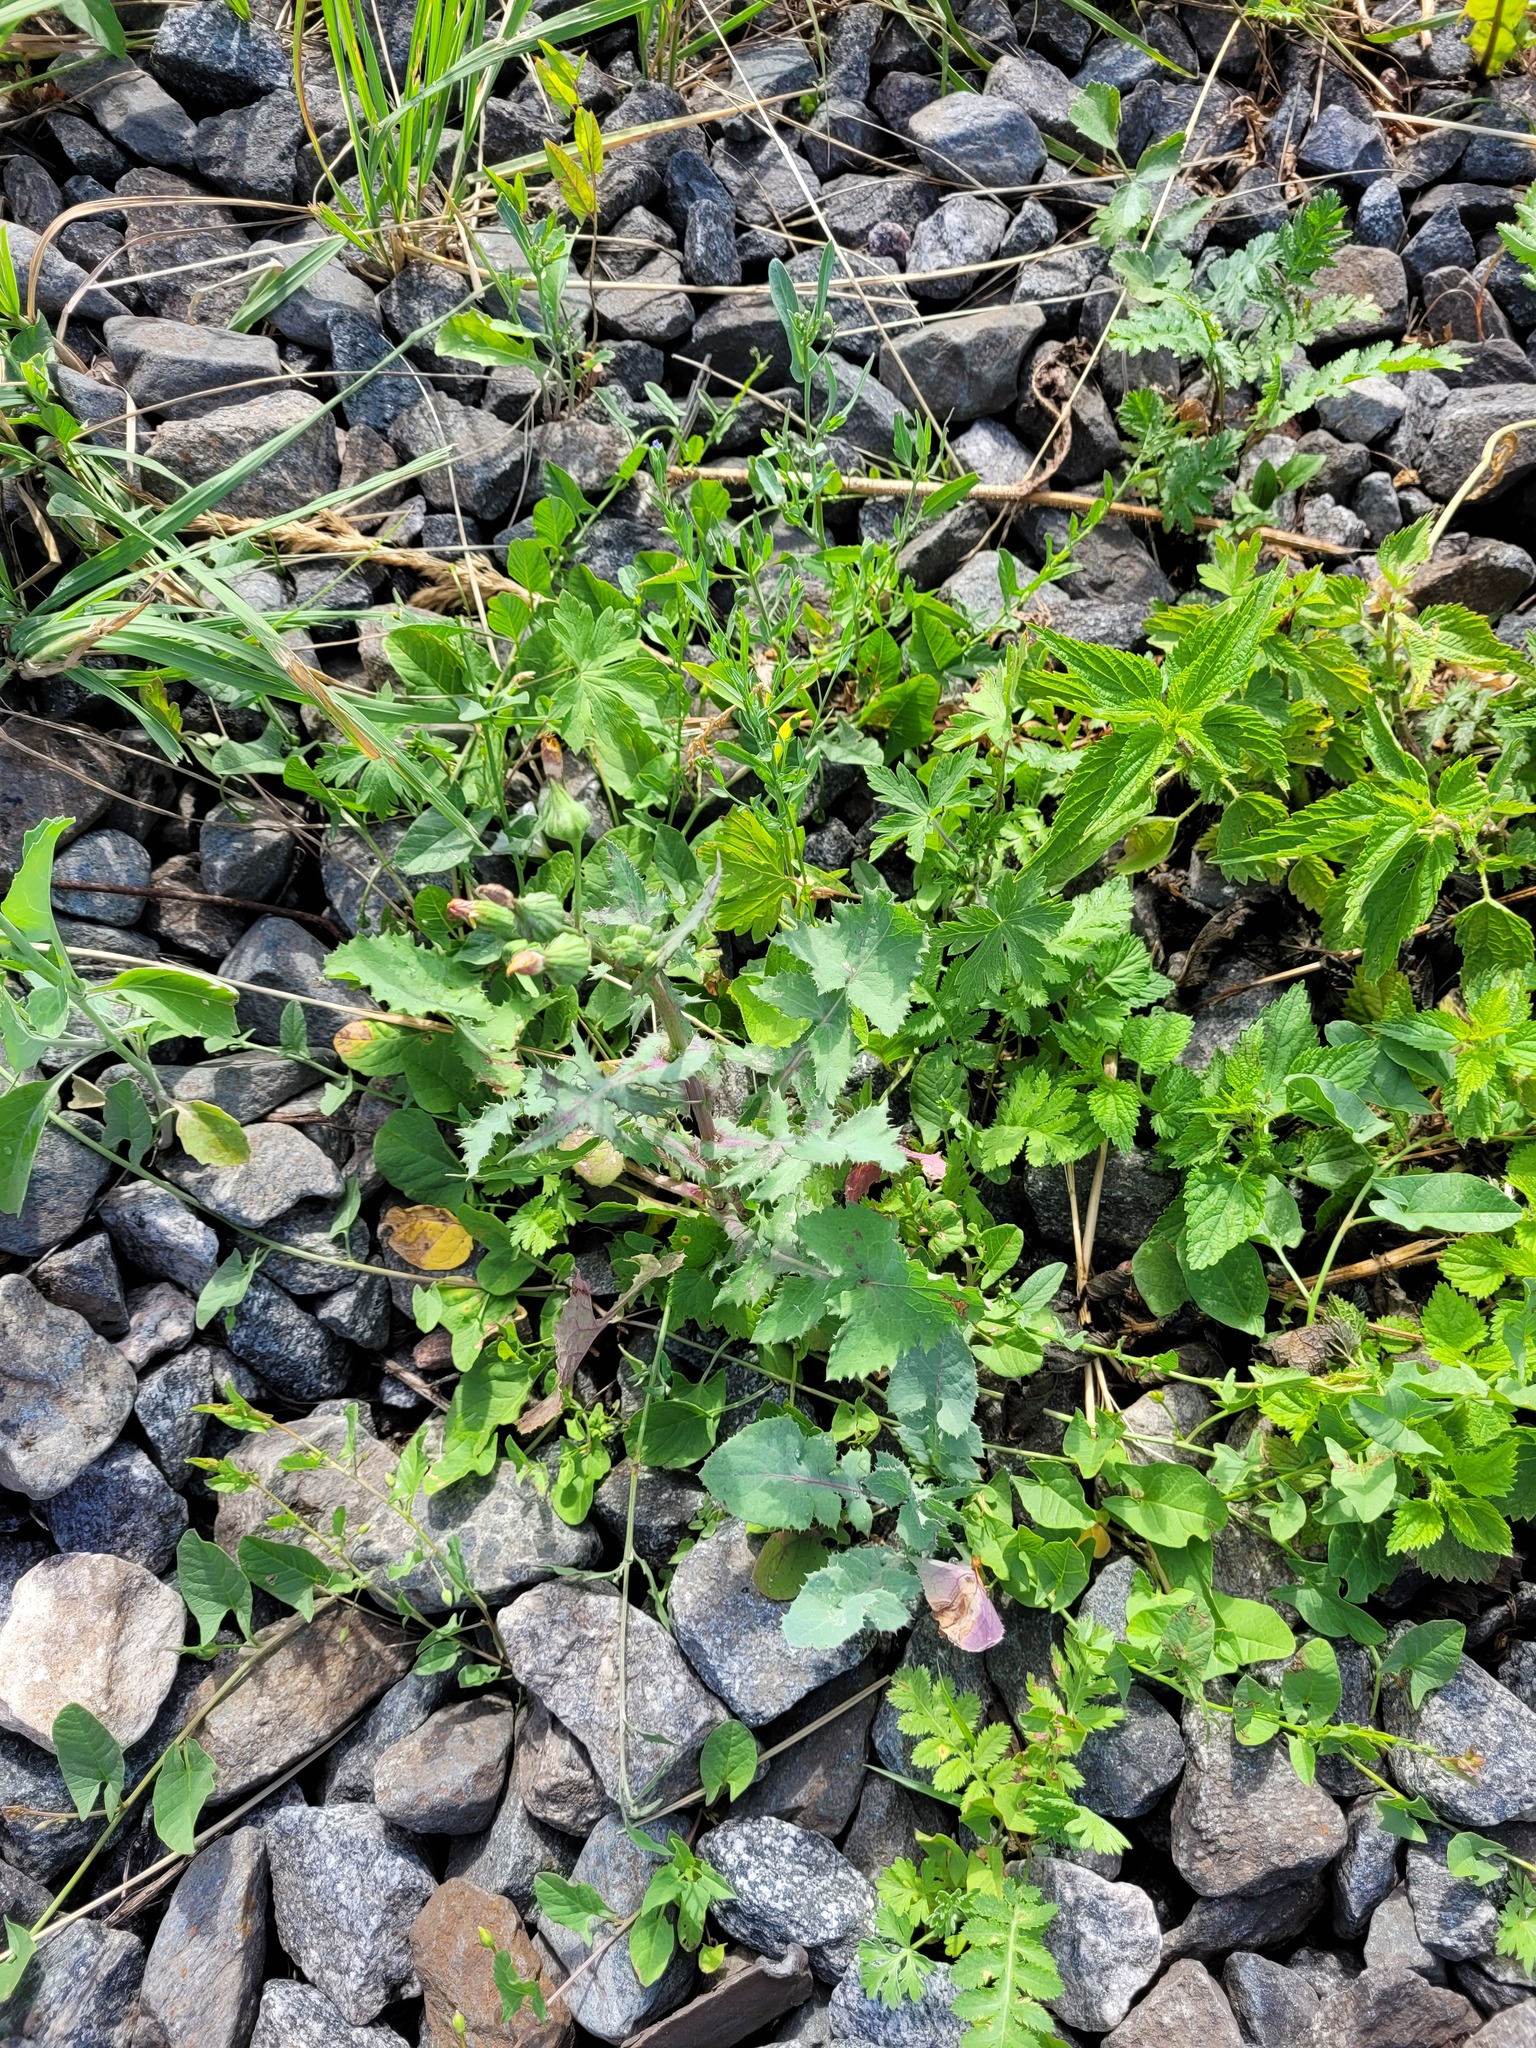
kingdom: Plantae
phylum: Tracheophyta
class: Magnoliopsida
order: Asterales
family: Asteraceae
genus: Sonchus
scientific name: Sonchus oleraceus
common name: Common sowthistle
